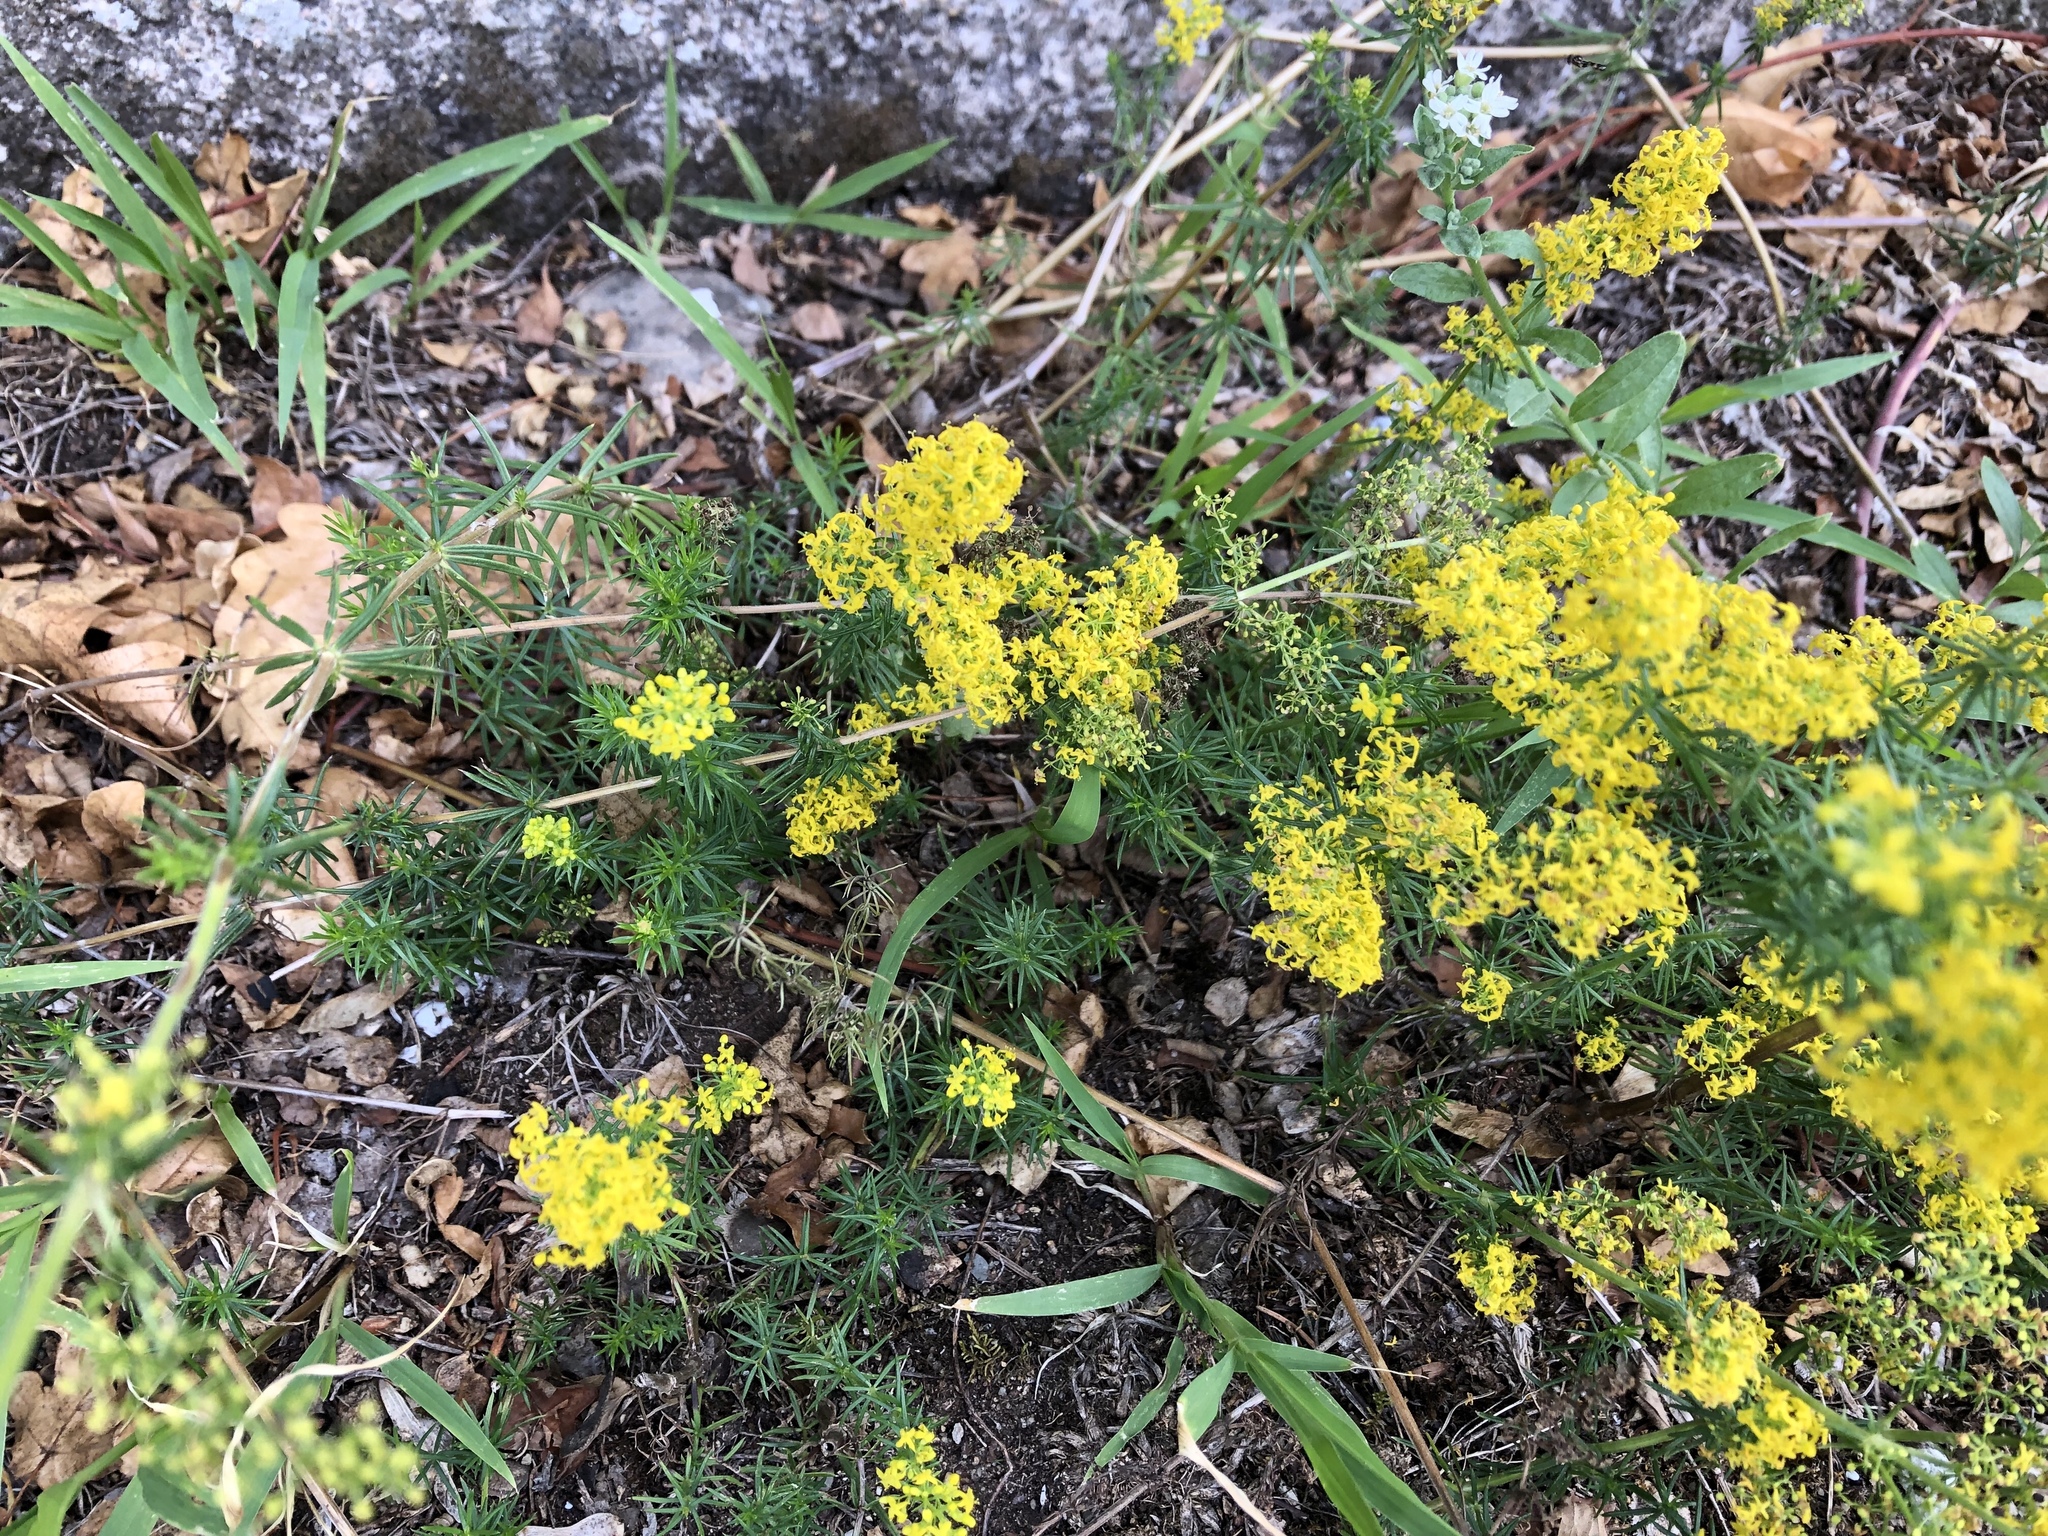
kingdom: Plantae
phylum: Tracheophyta
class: Magnoliopsida
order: Gentianales
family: Rubiaceae
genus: Galium
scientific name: Galium verum
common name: Lady's bedstraw
